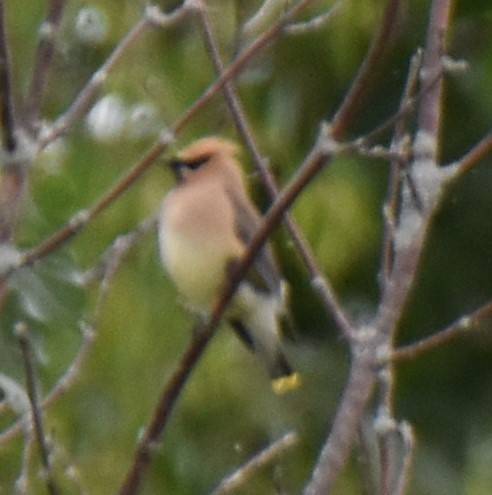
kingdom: Animalia
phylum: Chordata
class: Aves
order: Passeriformes
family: Bombycillidae
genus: Bombycilla
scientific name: Bombycilla cedrorum
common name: Cedar waxwing
